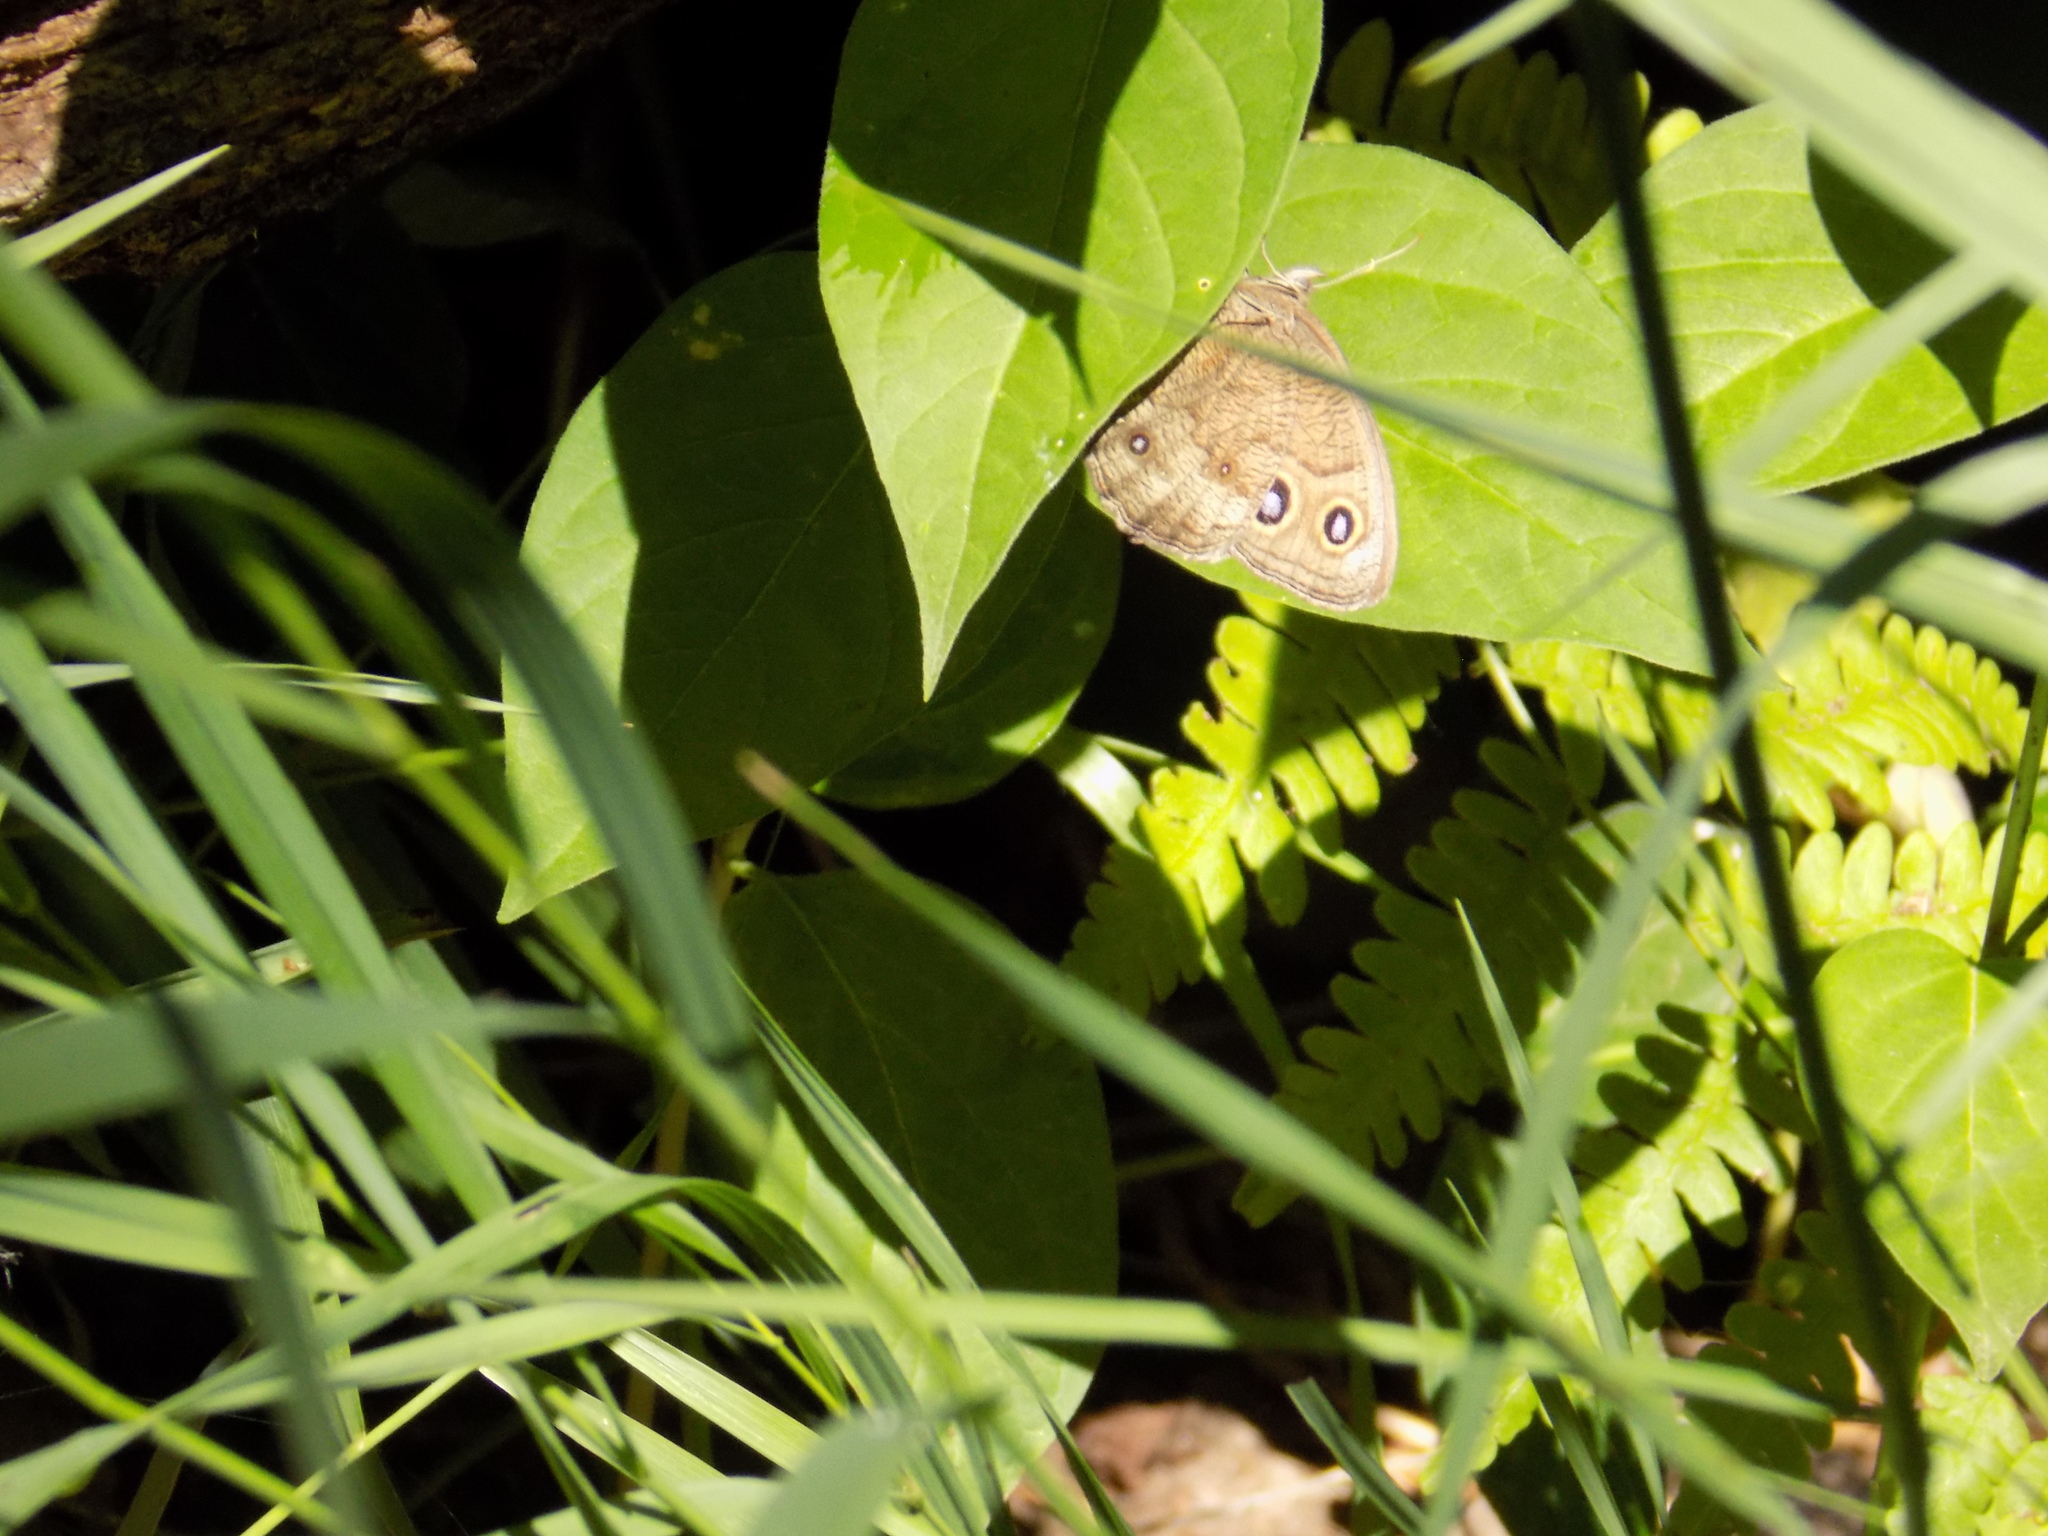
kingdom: Animalia
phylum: Arthropoda
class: Insecta
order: Lepidoptera
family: Nymphalidae
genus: Cercyonis
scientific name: Cercyonis pegala
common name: Common wood-nymph
